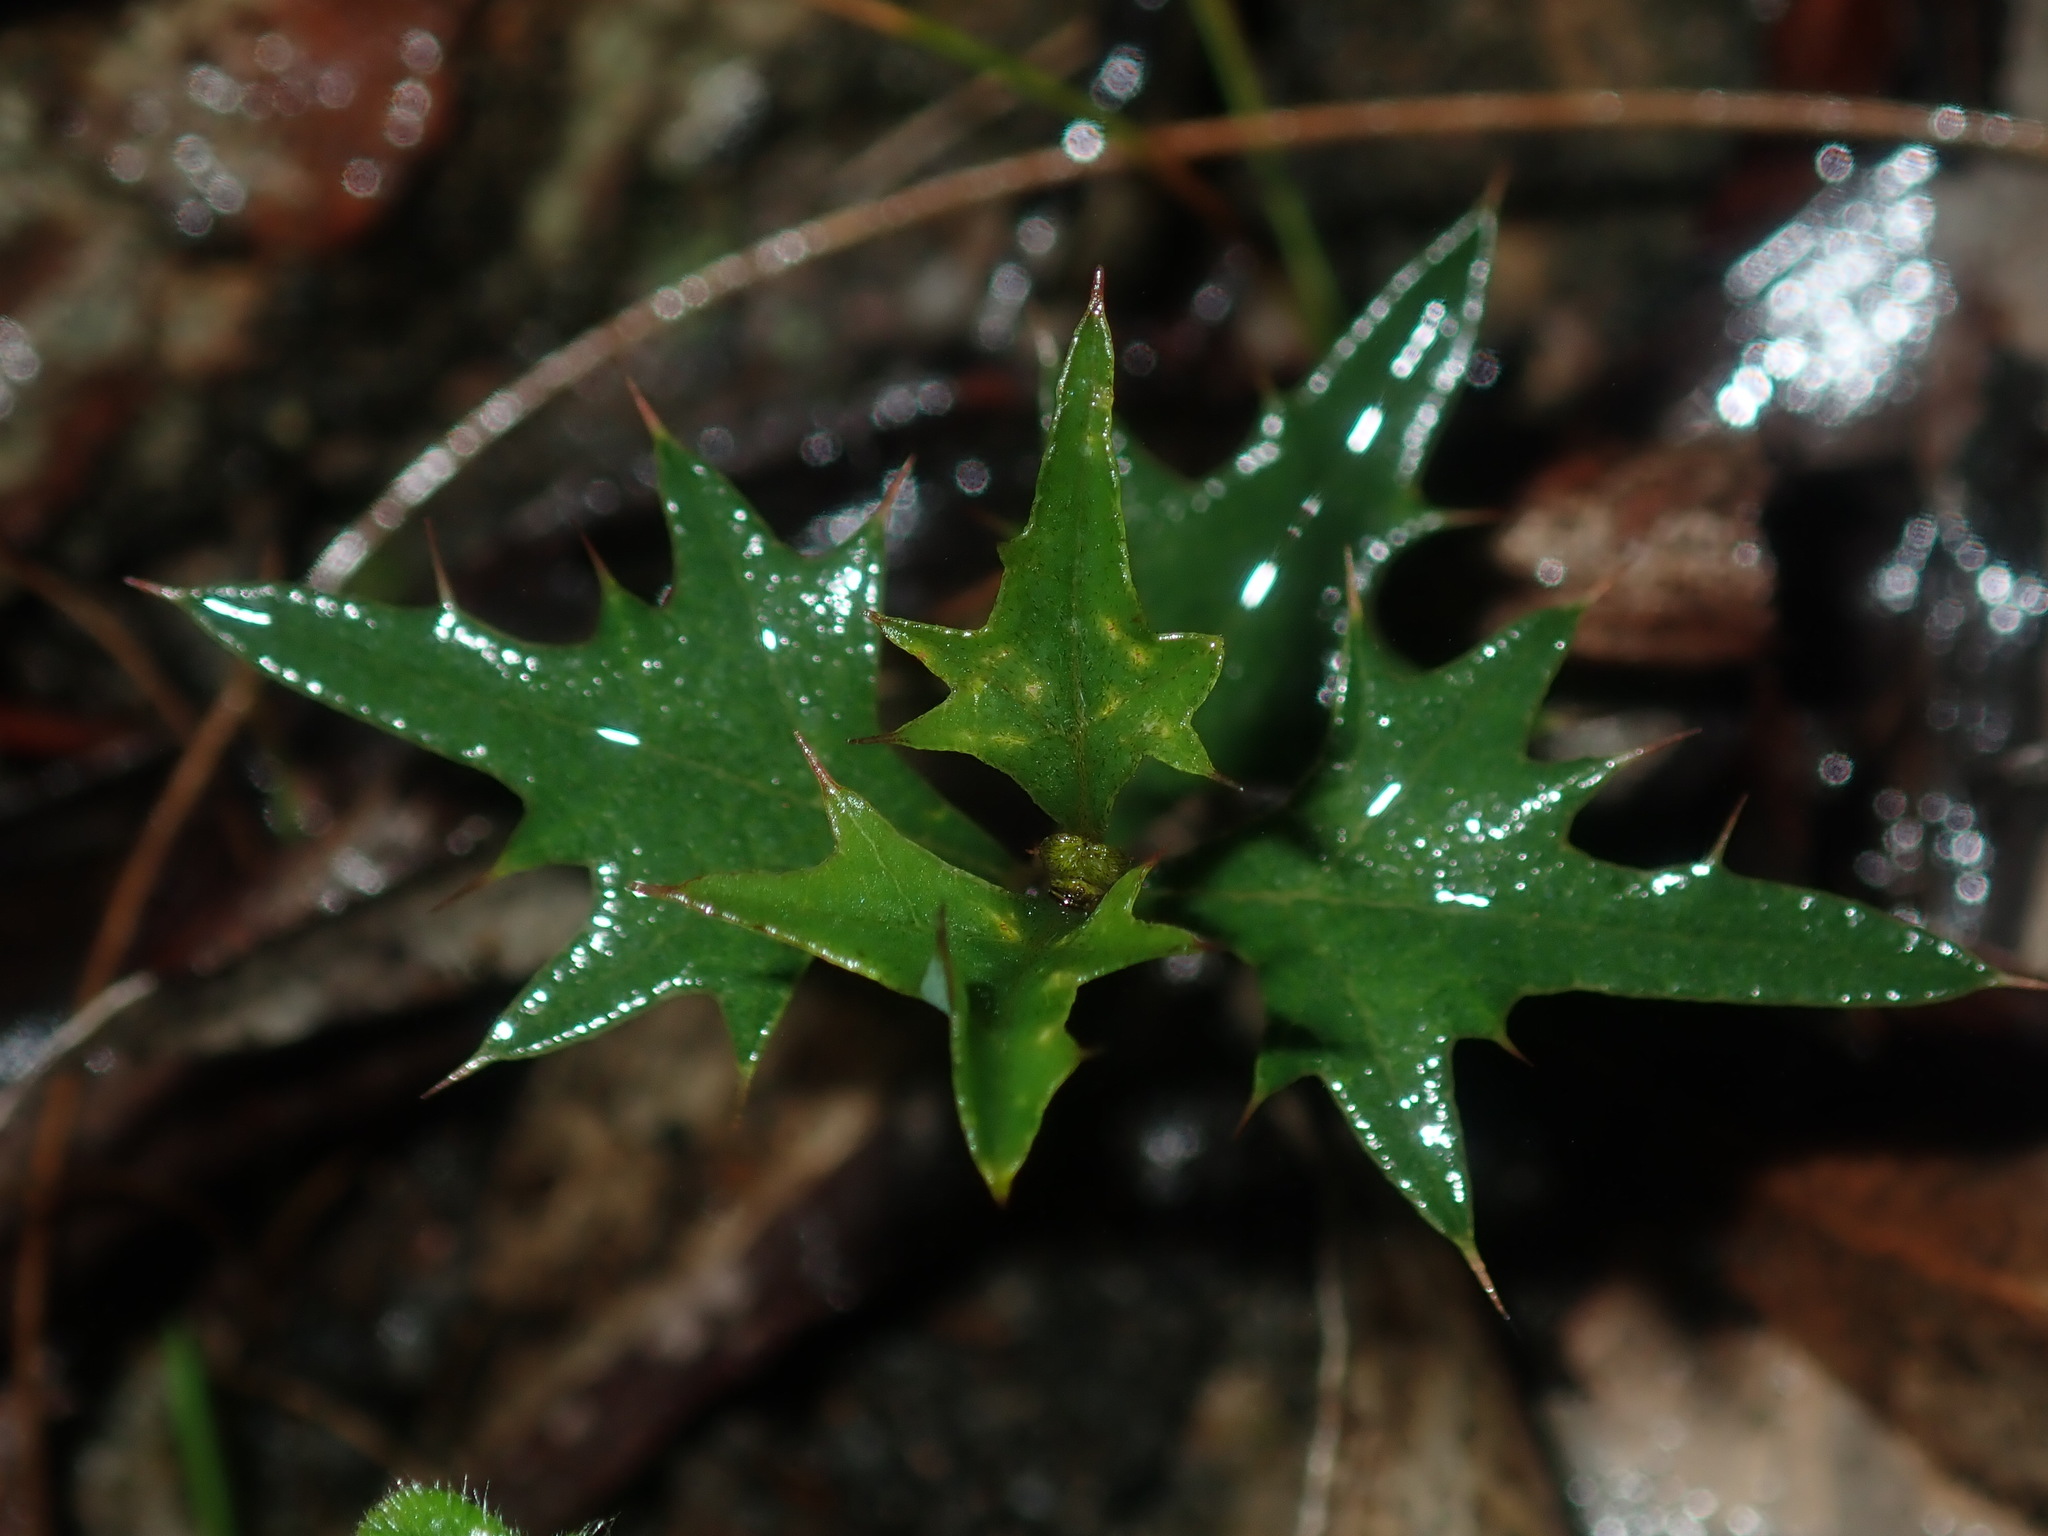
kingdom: Plantae
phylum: Tracheophyta
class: Magnoliopsida
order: Fabales
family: Fabaceae
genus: Podolobium
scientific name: Podolobium ilicifolium
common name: Native holly
